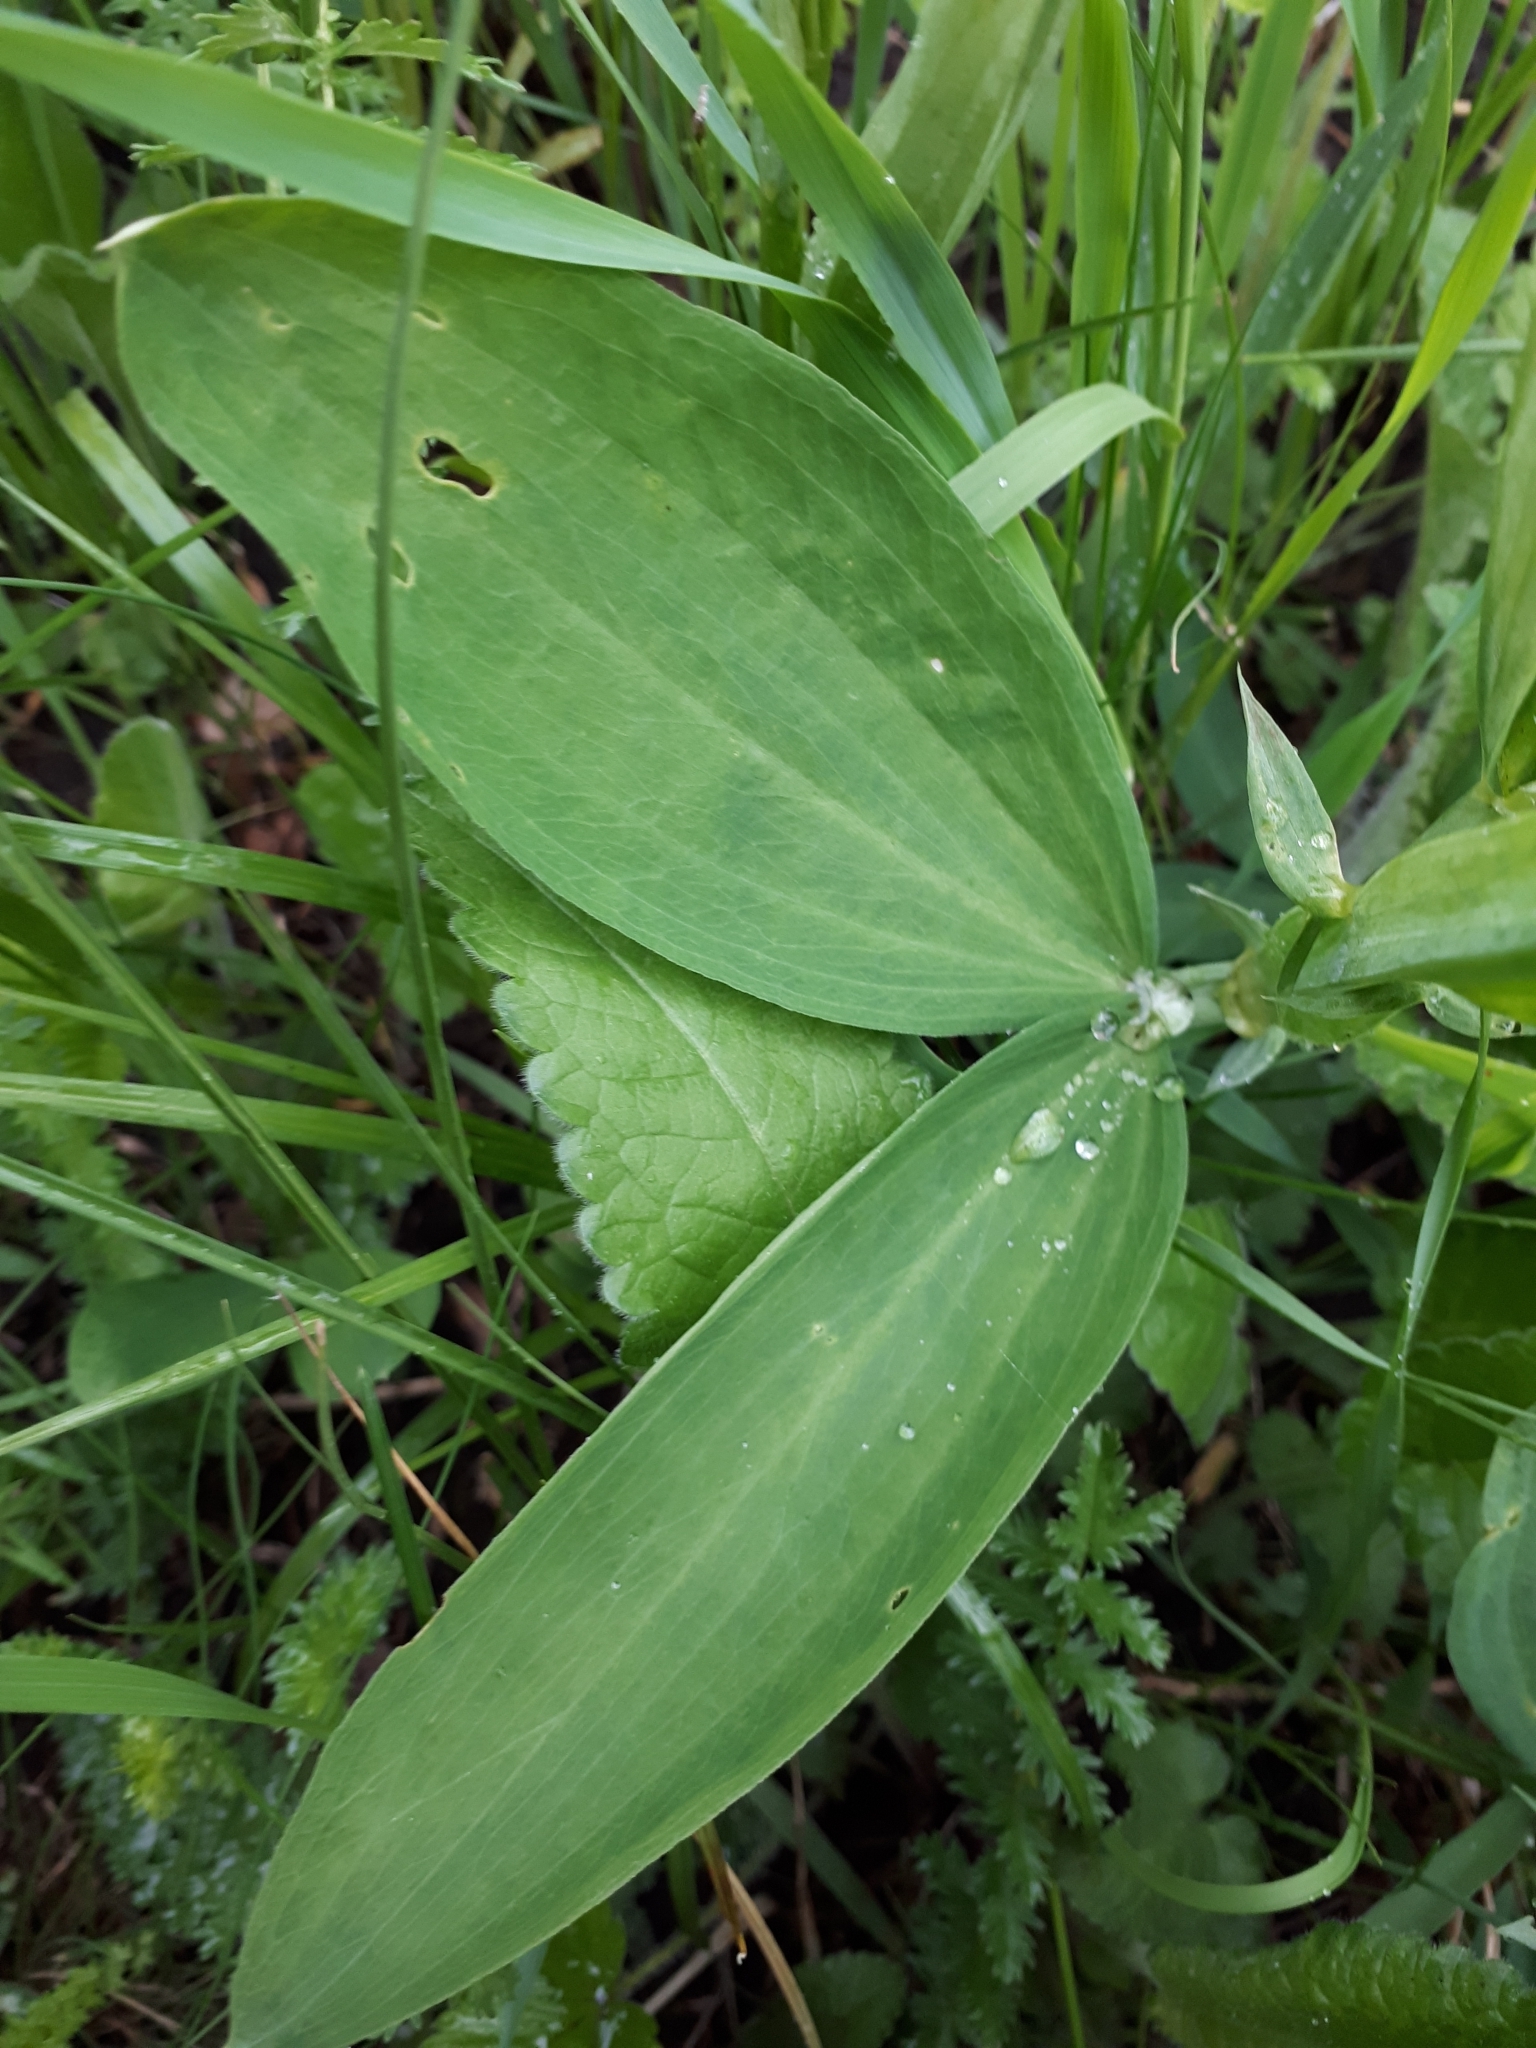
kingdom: Plantae
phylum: Tracheophyta
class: Magnoliopsida
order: Fabales
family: Fabaceae
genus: Lathyrus
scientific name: Lathyrus sylvestris
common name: Flat pea
